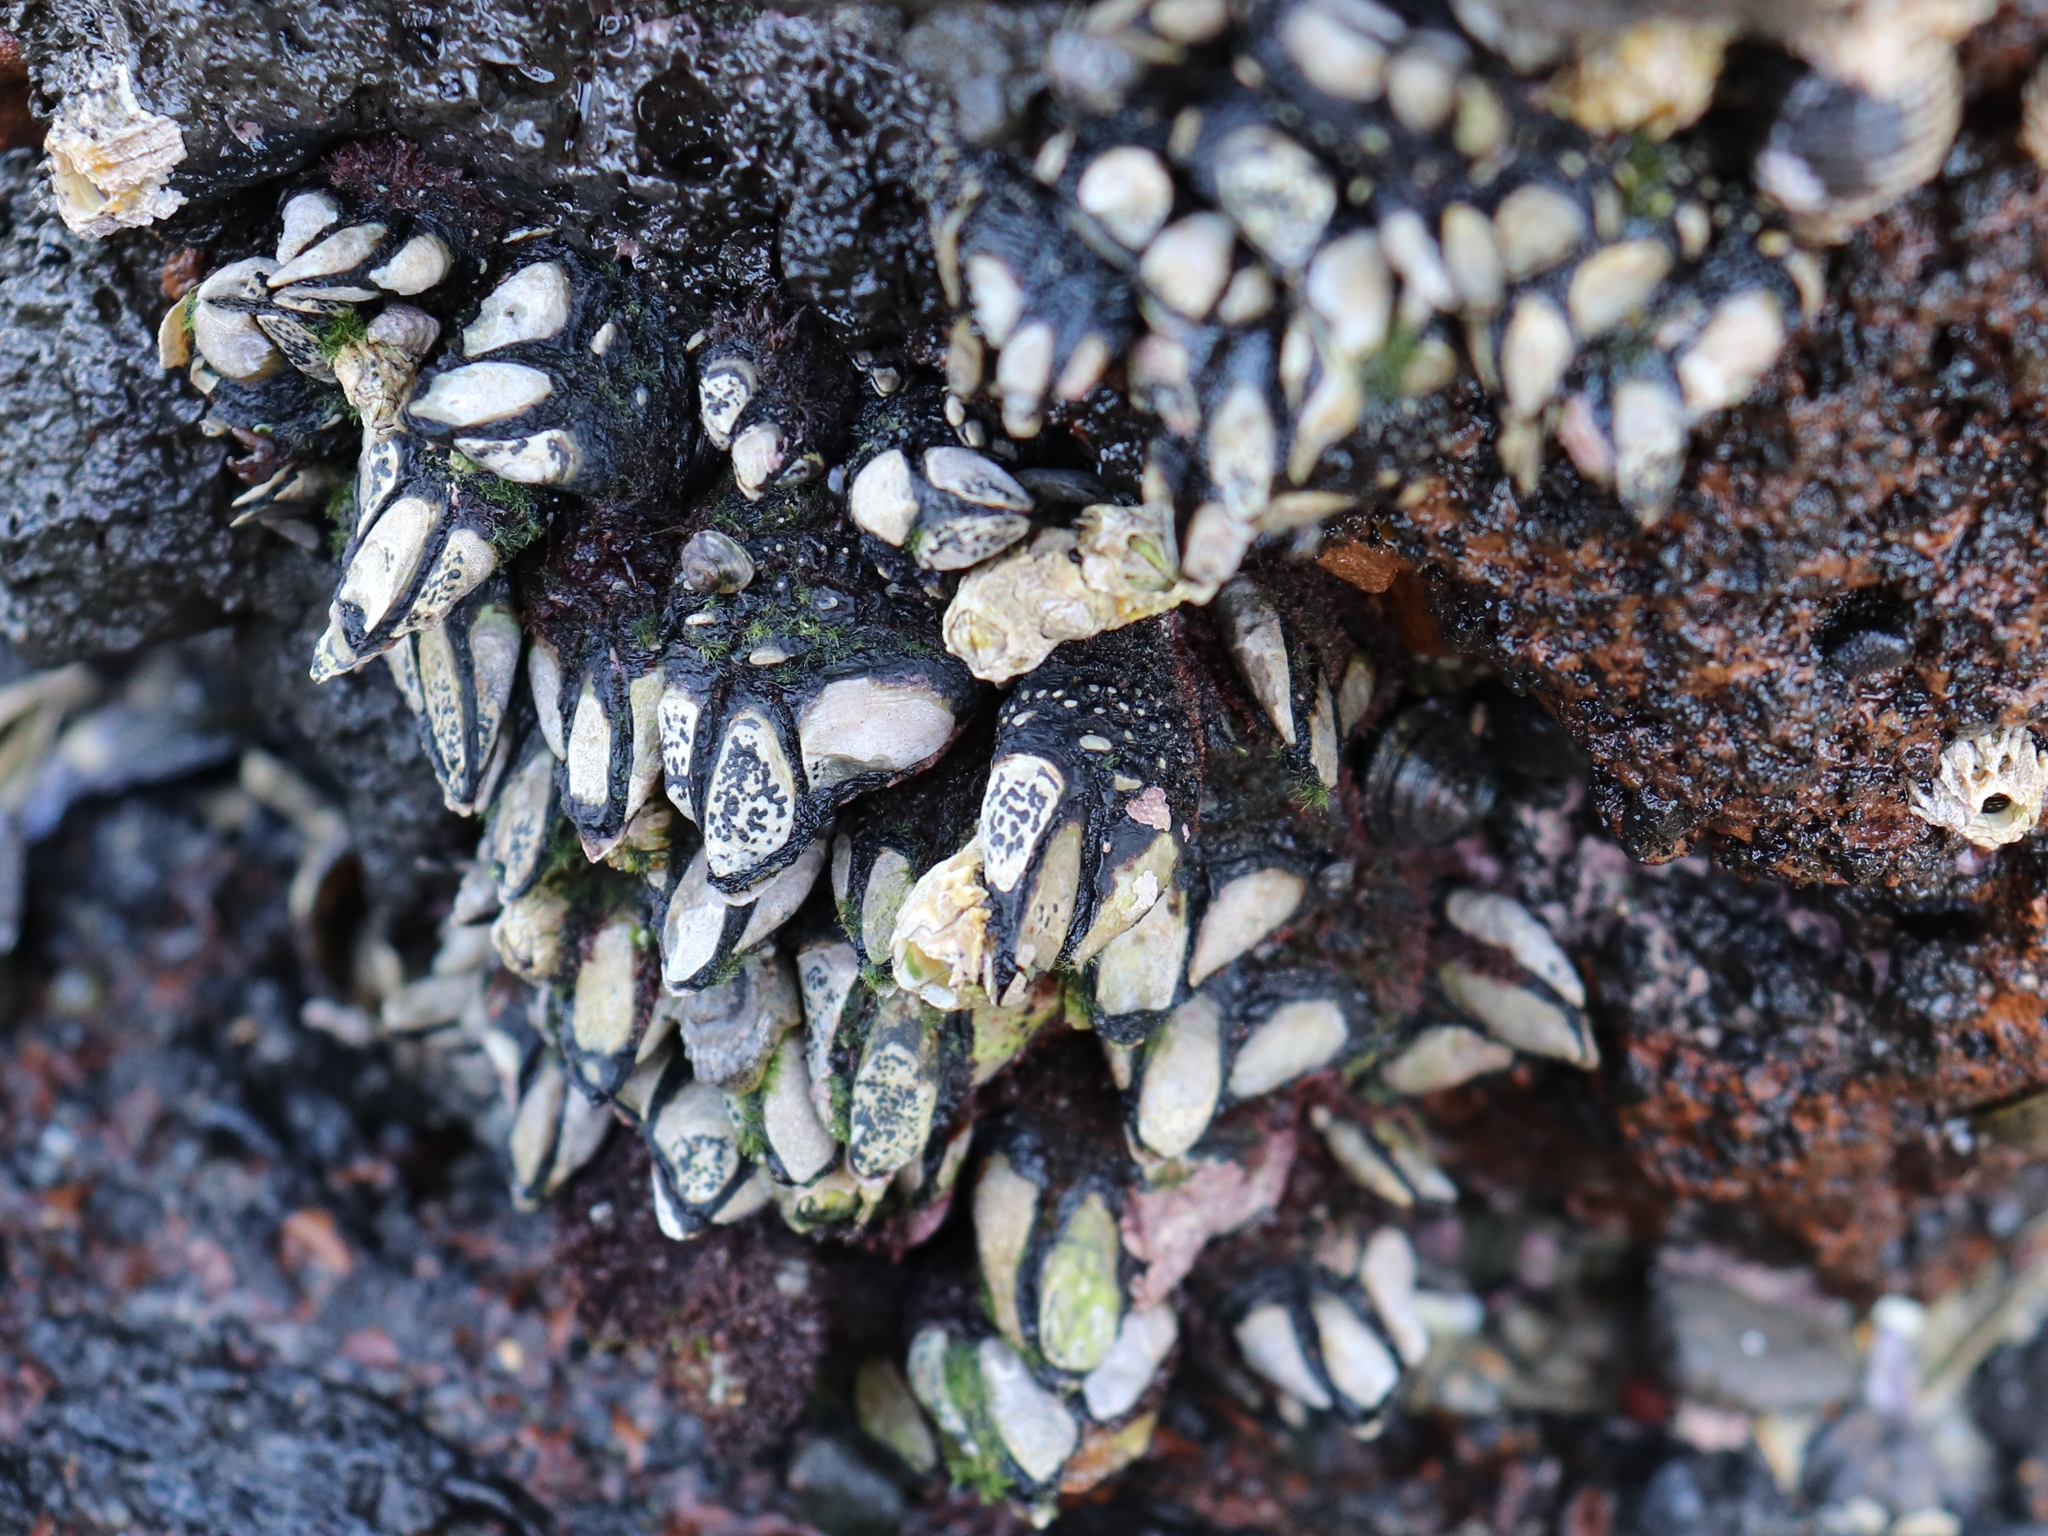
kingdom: Animalia
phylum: Arthropoda
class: Maxillopoda
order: Pedunculata
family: Calanticidae
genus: Calantica
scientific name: Calantica spinosa
